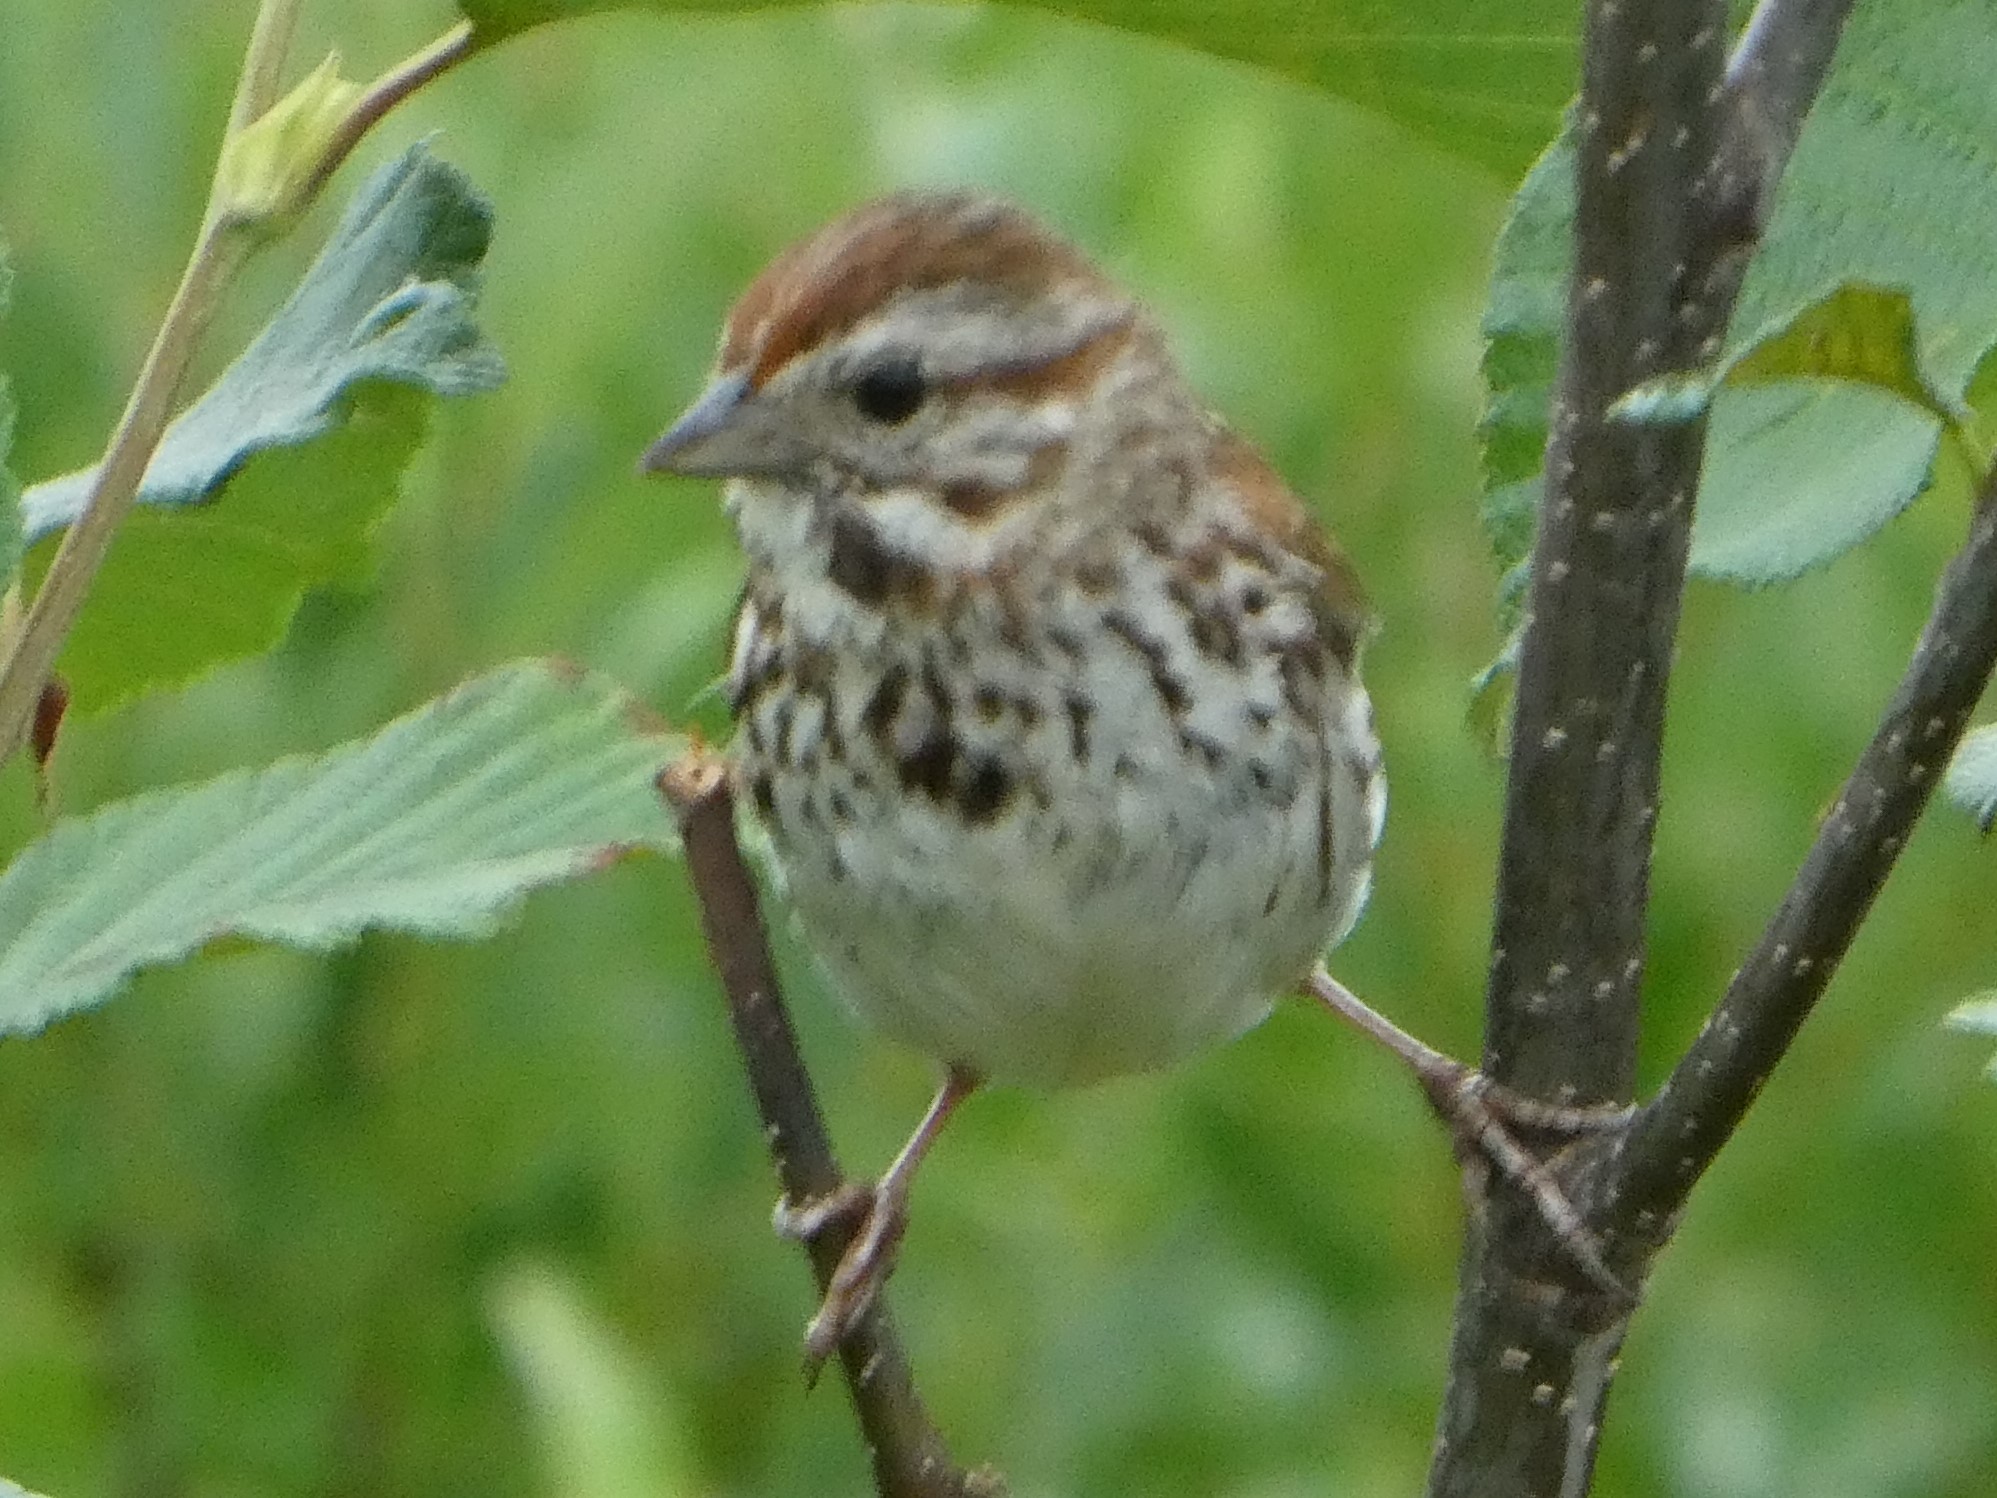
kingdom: Animalia
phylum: Chordata
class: Aves
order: Passeriformes
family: Passerellidae
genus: Melospiza
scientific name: Melospiza melodia
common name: Song sparrow
